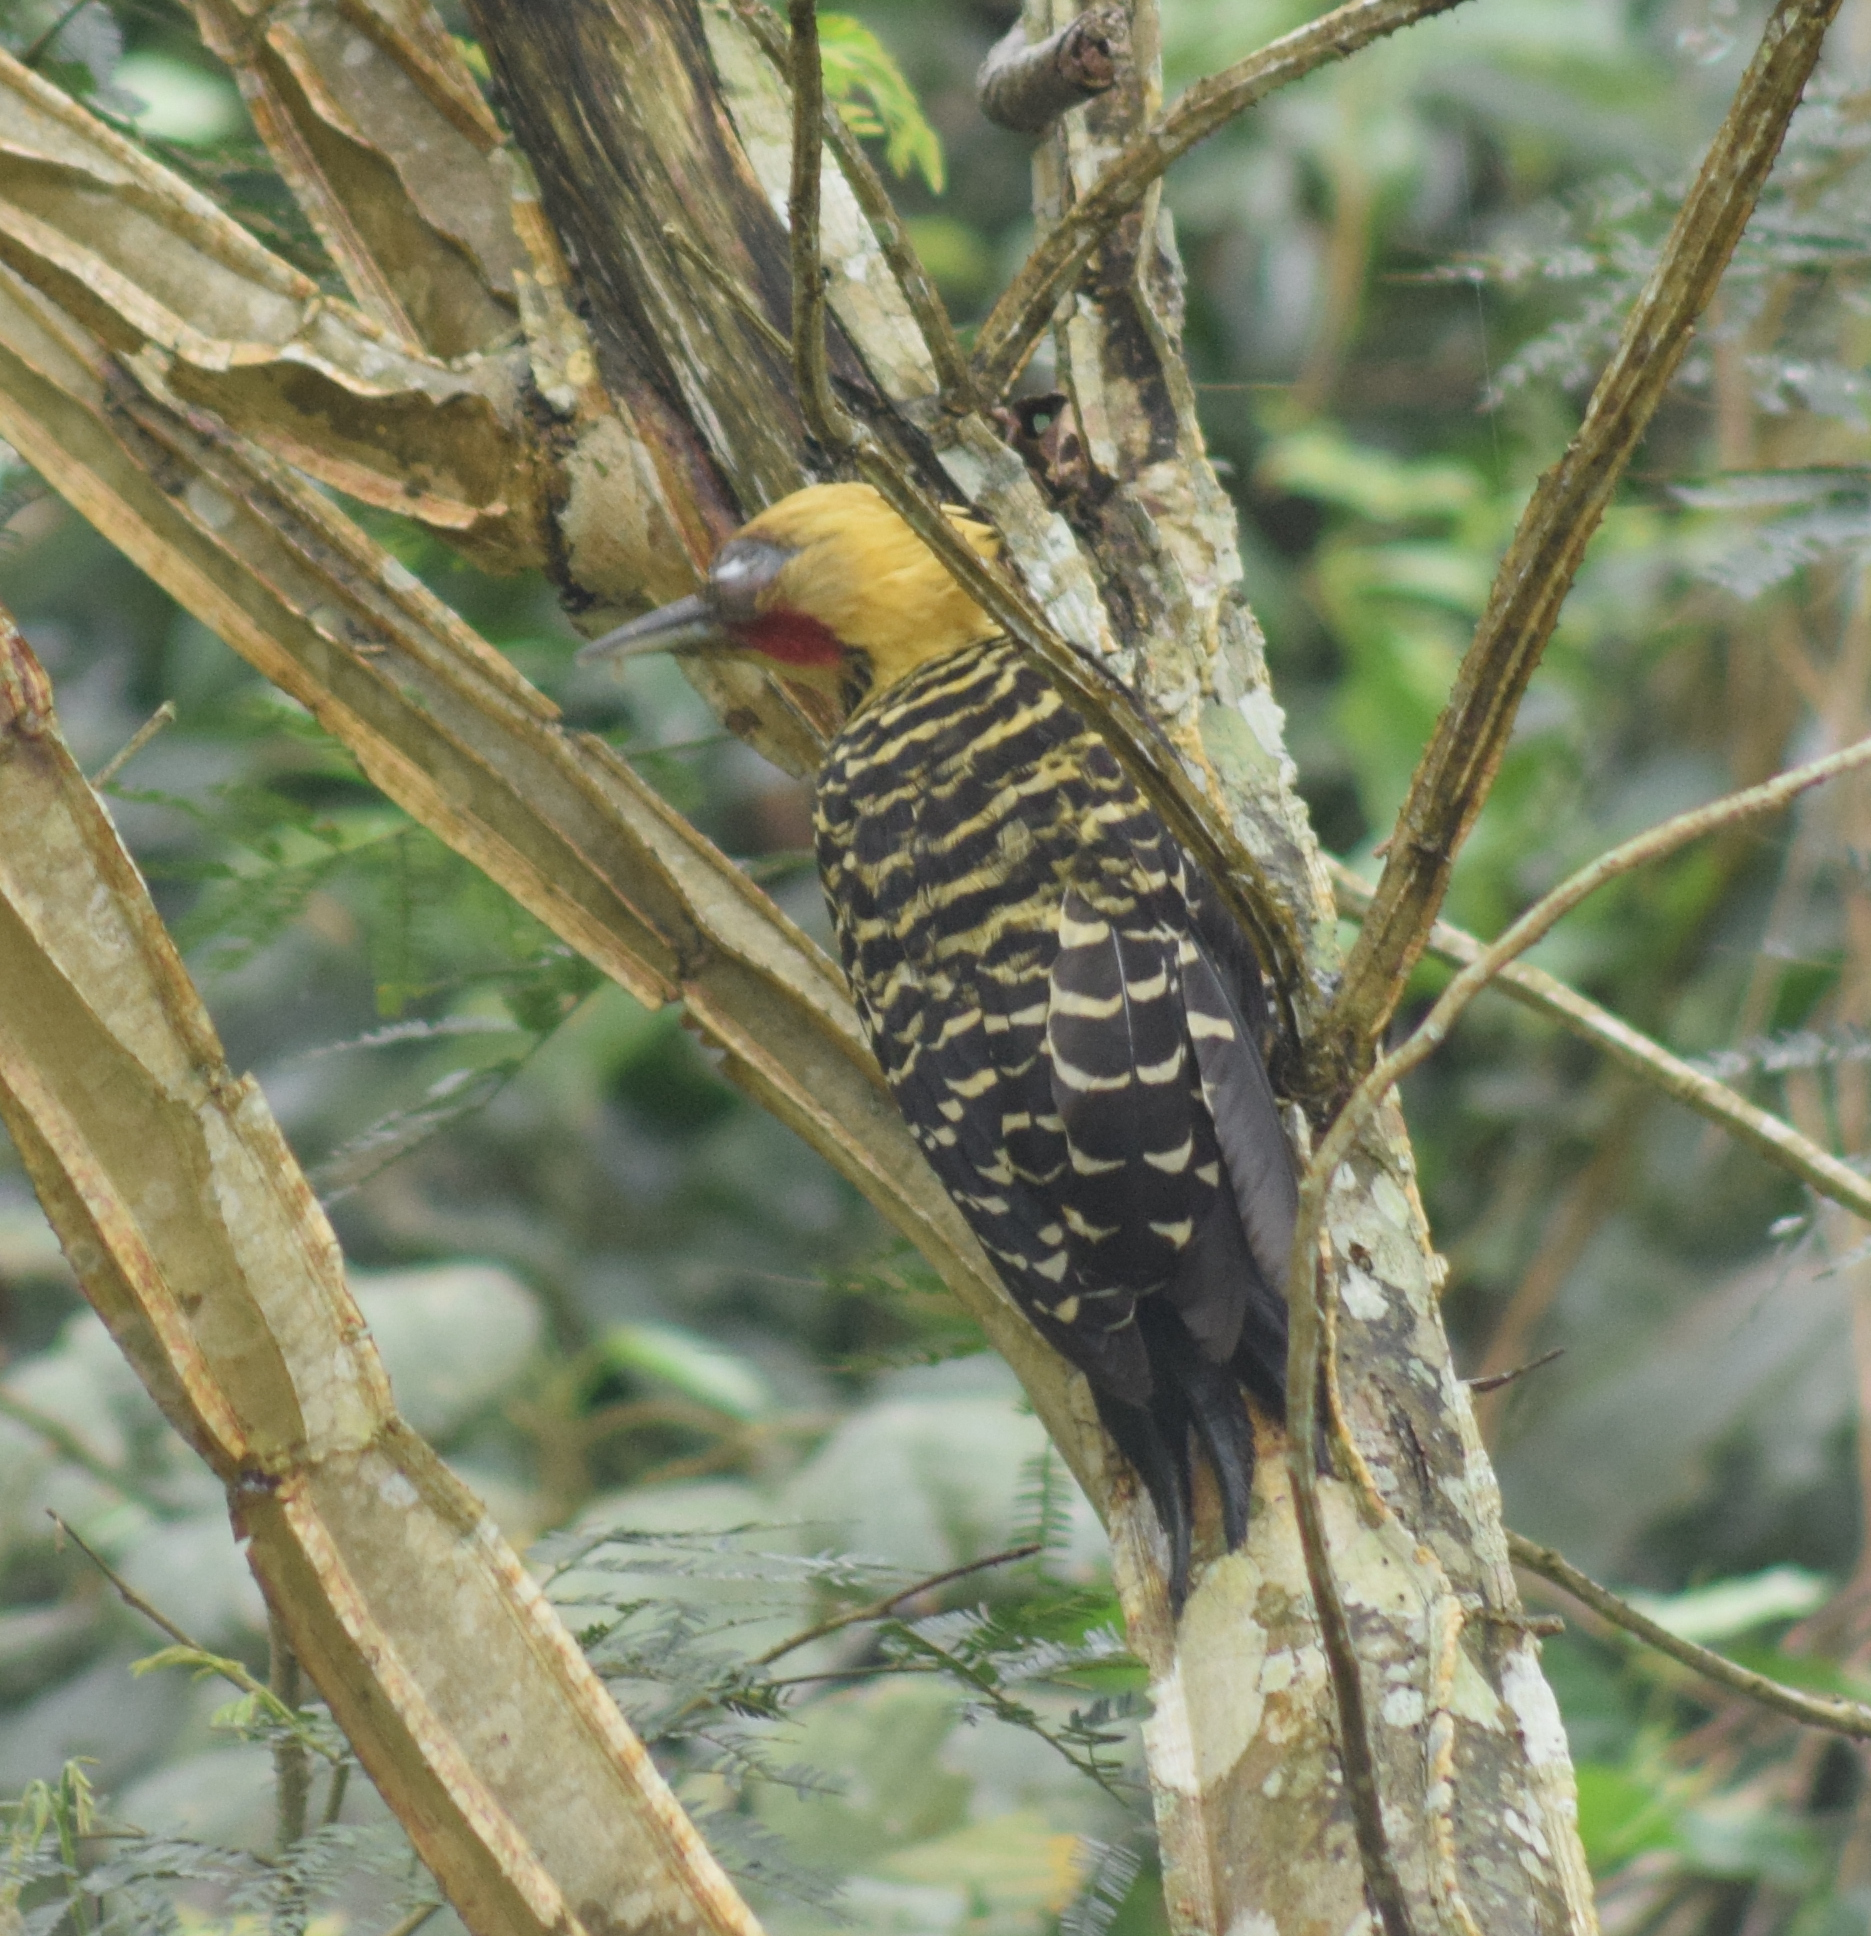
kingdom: Animalia
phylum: Chordata
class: Aves
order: Piciformes
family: Picidae
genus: Celeus
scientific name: Celeus flavescens
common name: Blond-crested woodpecker
